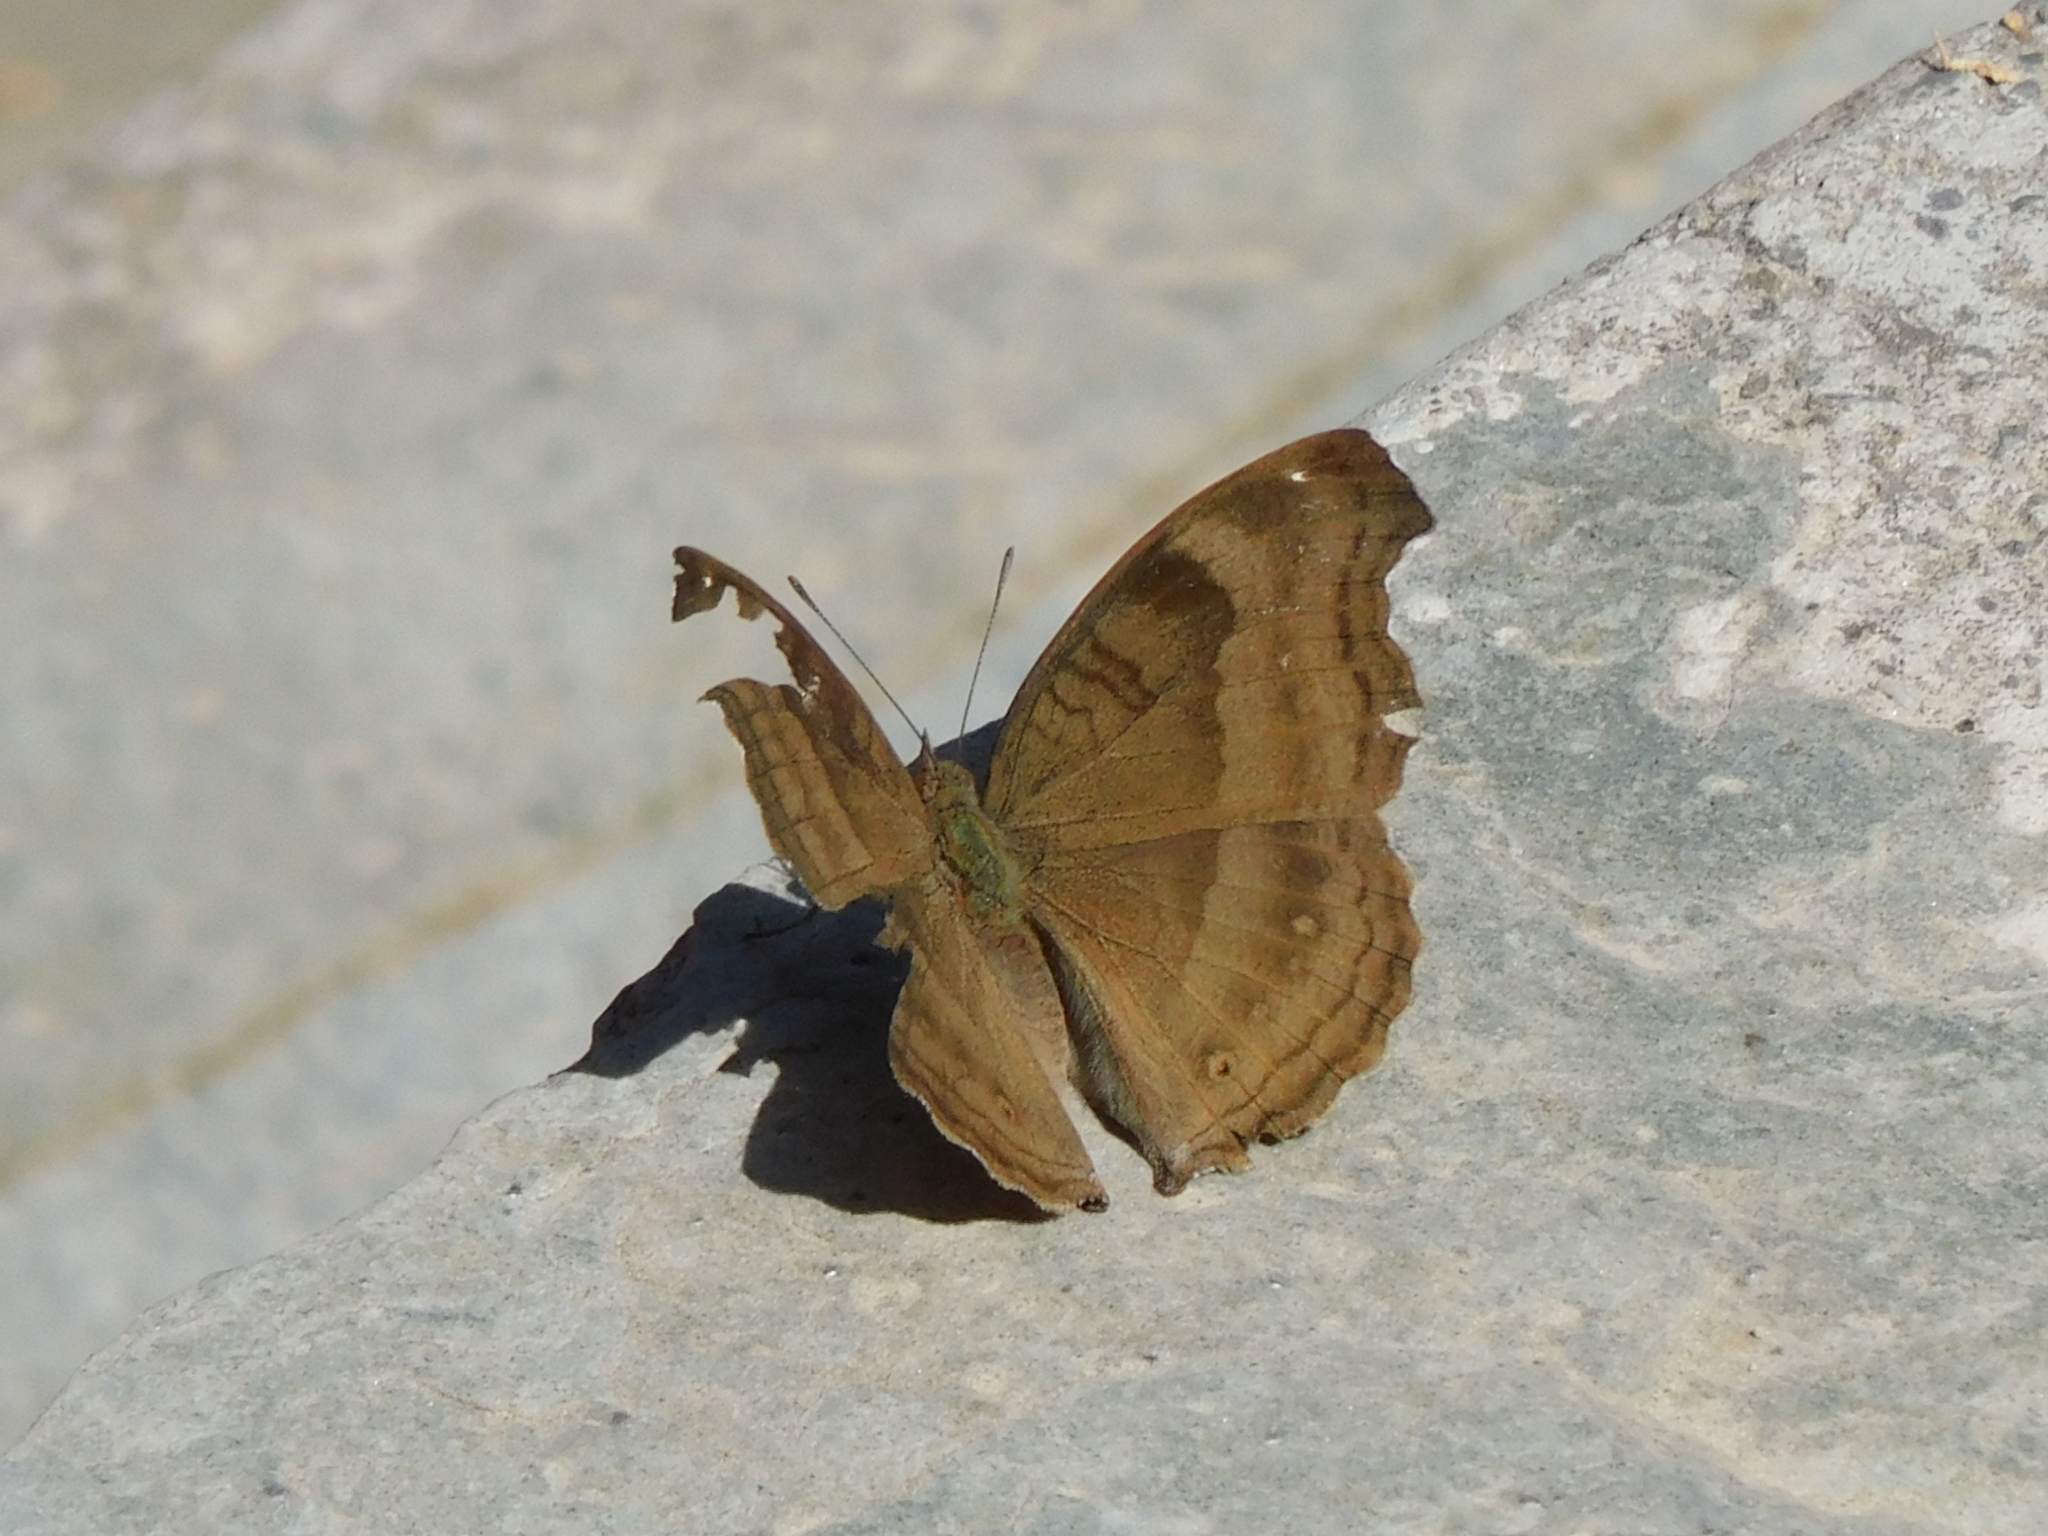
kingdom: Animalia
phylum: Arthropoda
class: Insecta
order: Lepidoptera
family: Nymphalidae
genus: Junonia
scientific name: Junonia iphita
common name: Chocolate pansy
